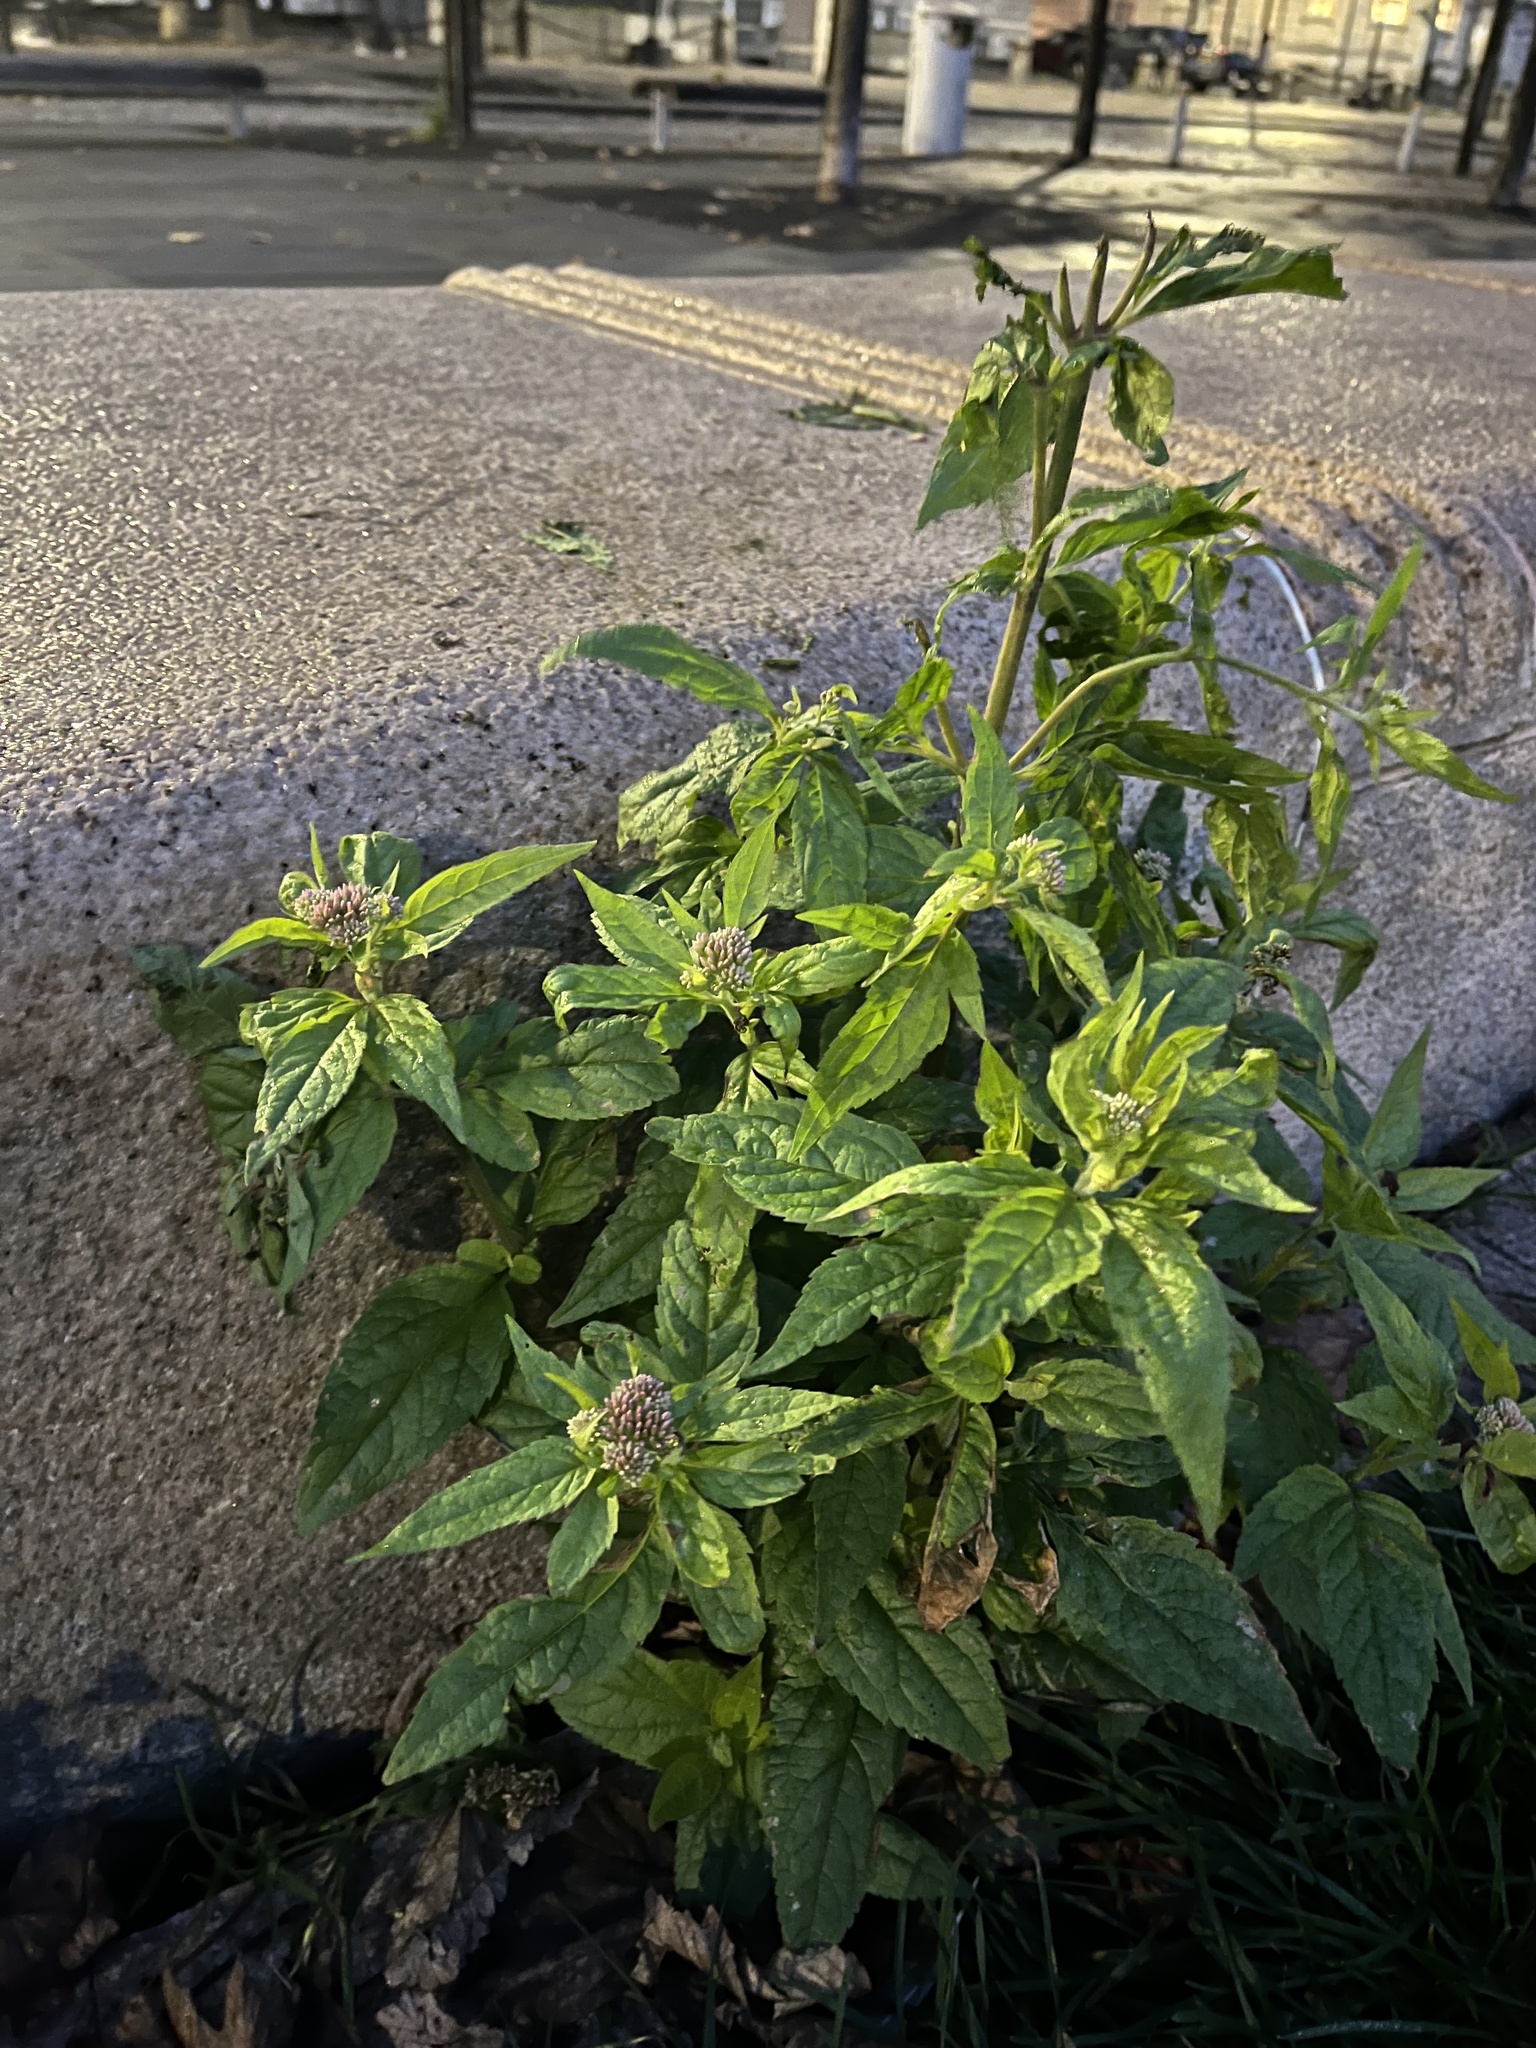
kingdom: Plantae
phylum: Tracheophyta
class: Magnoliopsida
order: Asterales
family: Asteraceae
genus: Eupatorium
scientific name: Eupatorium cannabinum
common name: Hemp-agrimony
